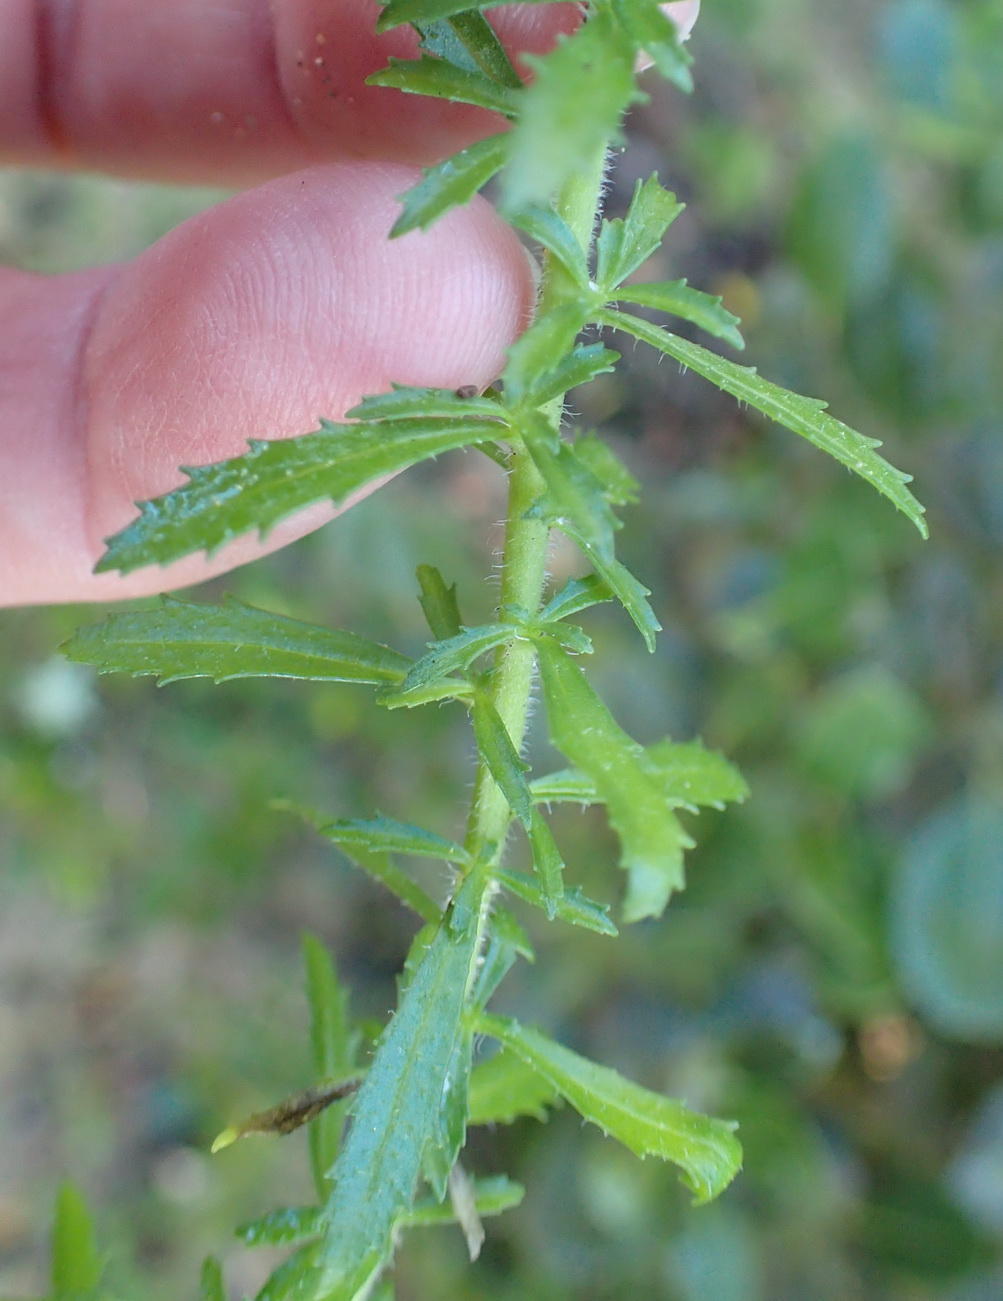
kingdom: Plantae
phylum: Tracheophyta
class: Magnoliopsida
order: Lamiales
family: Scrophulariaceae
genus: Dischisma
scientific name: Dischisma ciliatum
